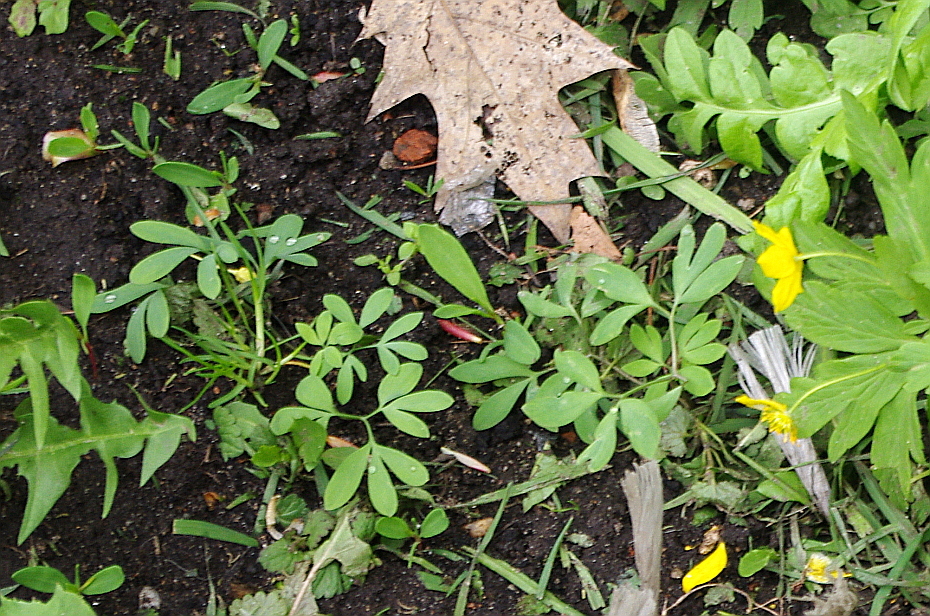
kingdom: Plantae
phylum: Tracheophyta
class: Magnoliopsida
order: Ranunculales
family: Papaveraceae
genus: Corydalis
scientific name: Corydalis solida
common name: Bird-in-a-bush
